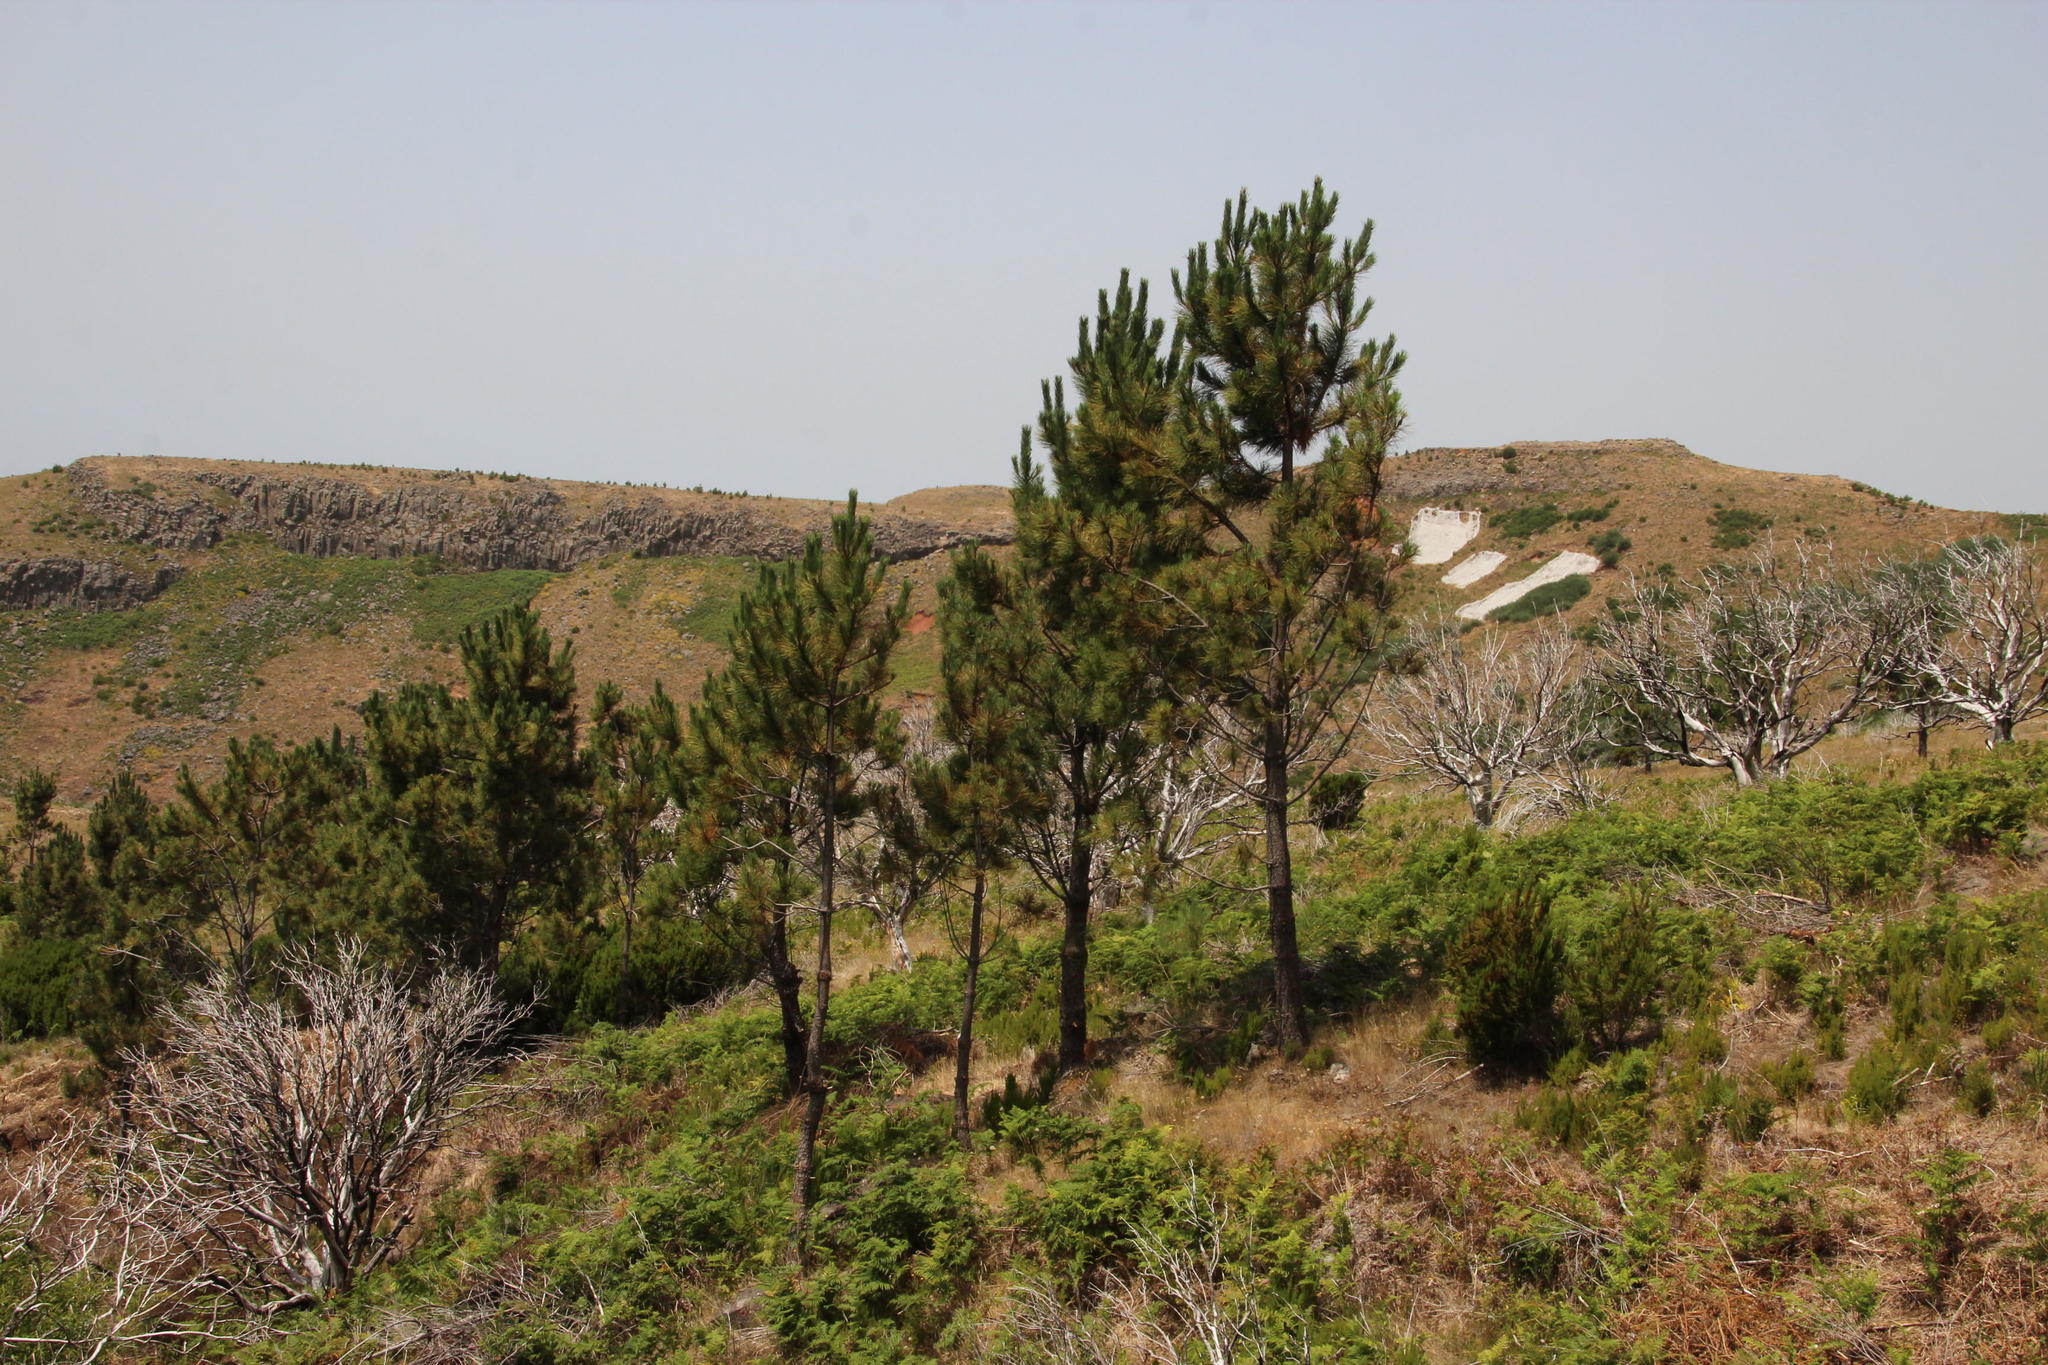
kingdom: Plantae
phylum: Tracheophyta
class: Pinopsida
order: Pinales
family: Pinaceae
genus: Pinus
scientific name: Pinus pinaster
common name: Maritime pine
